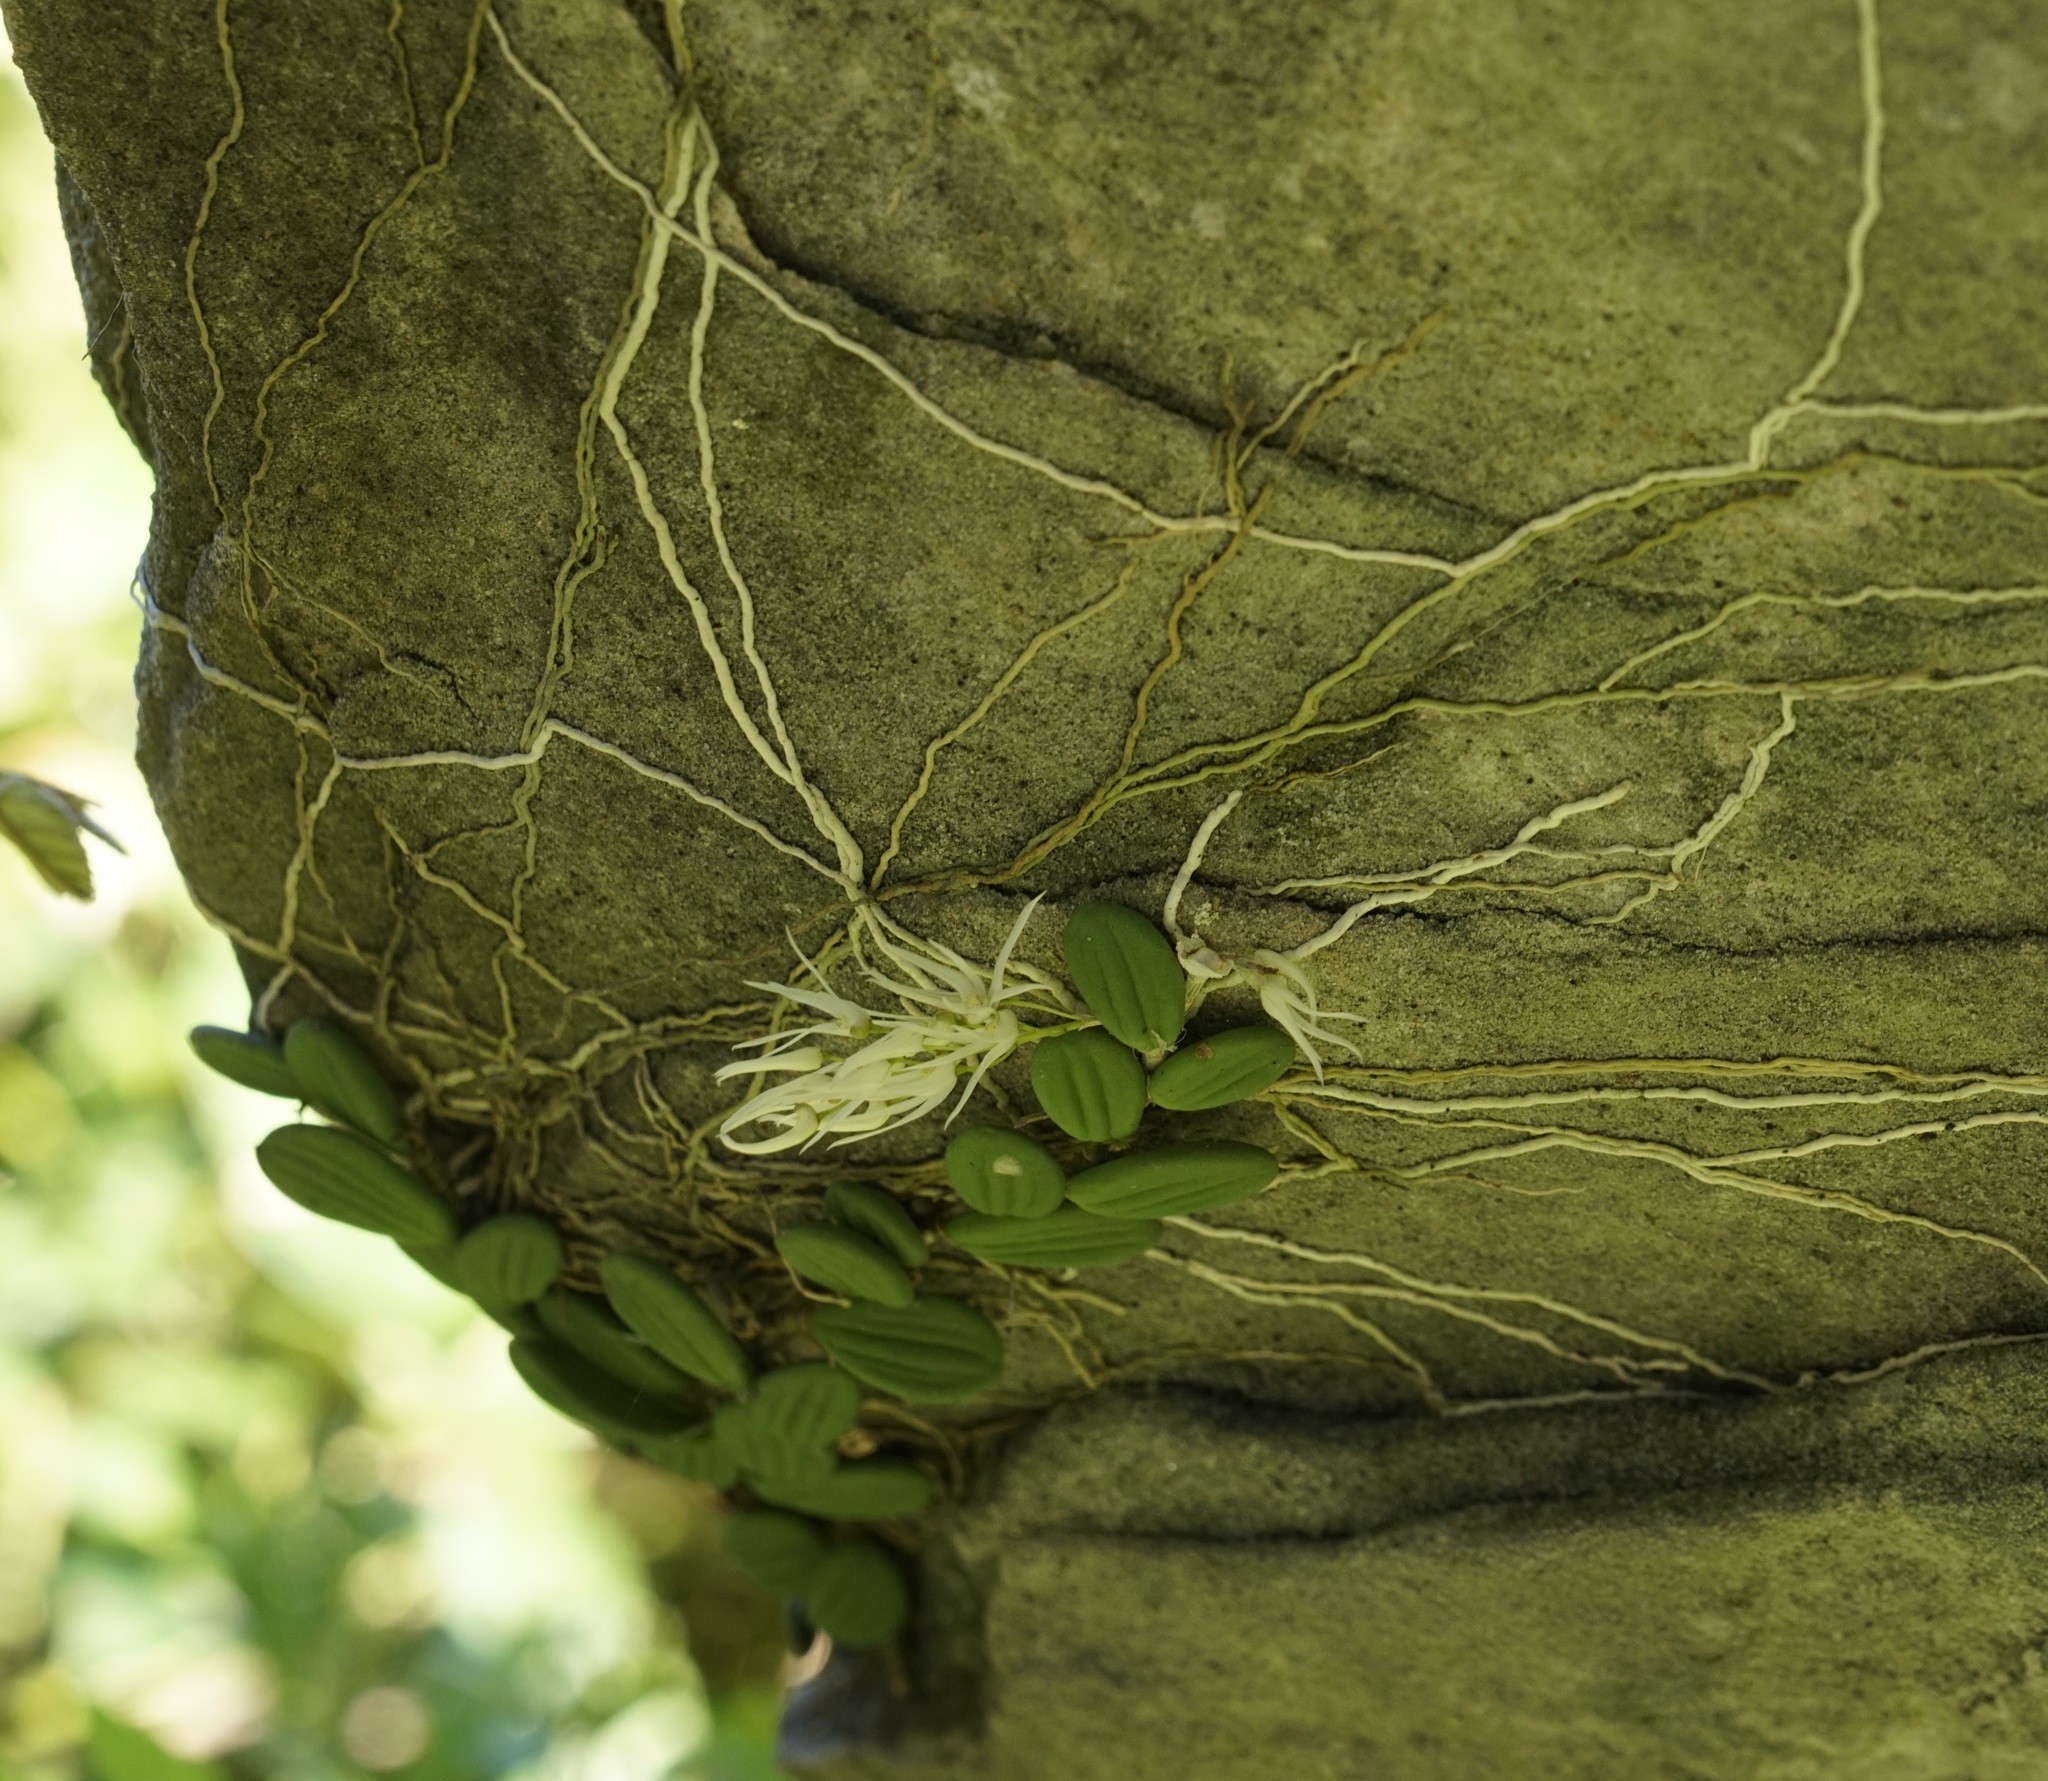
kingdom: Plantae
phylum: Tracheophyta
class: Liliopsida
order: Asparagales
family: Orchidaceae
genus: Dendrobium
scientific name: Dendrobium linguiforme
